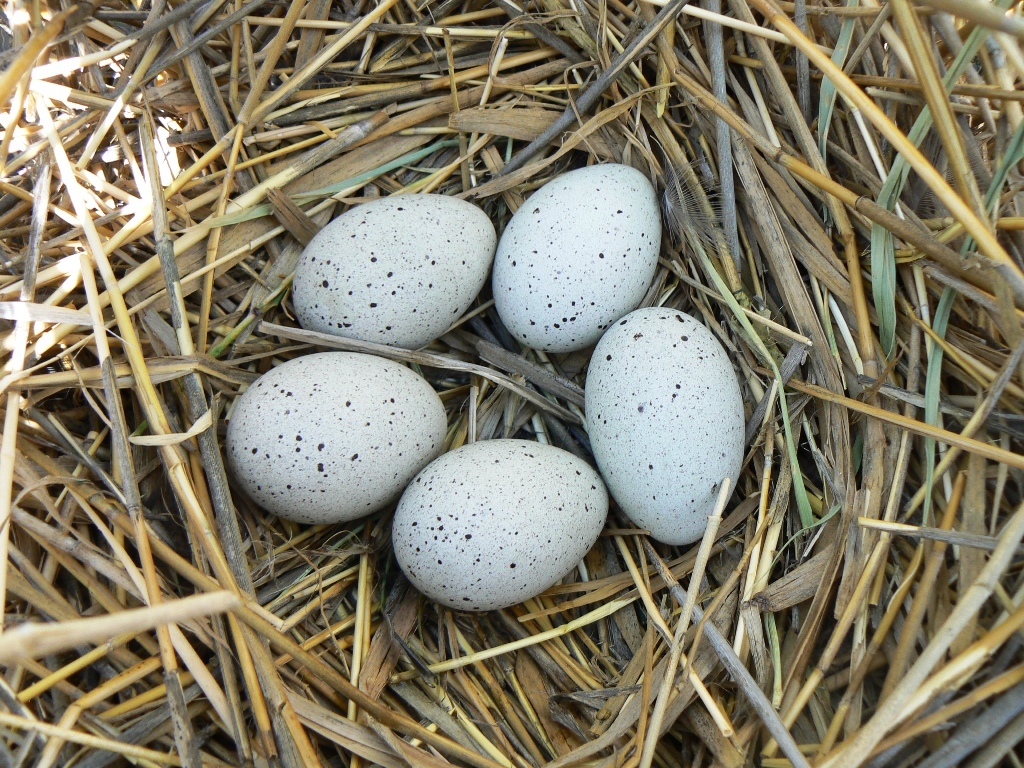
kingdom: Animalia
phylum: Chordata
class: Aves
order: Gruiformes
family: Rallidae
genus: Fulica
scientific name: Fulica atra
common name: Eurasian coot
